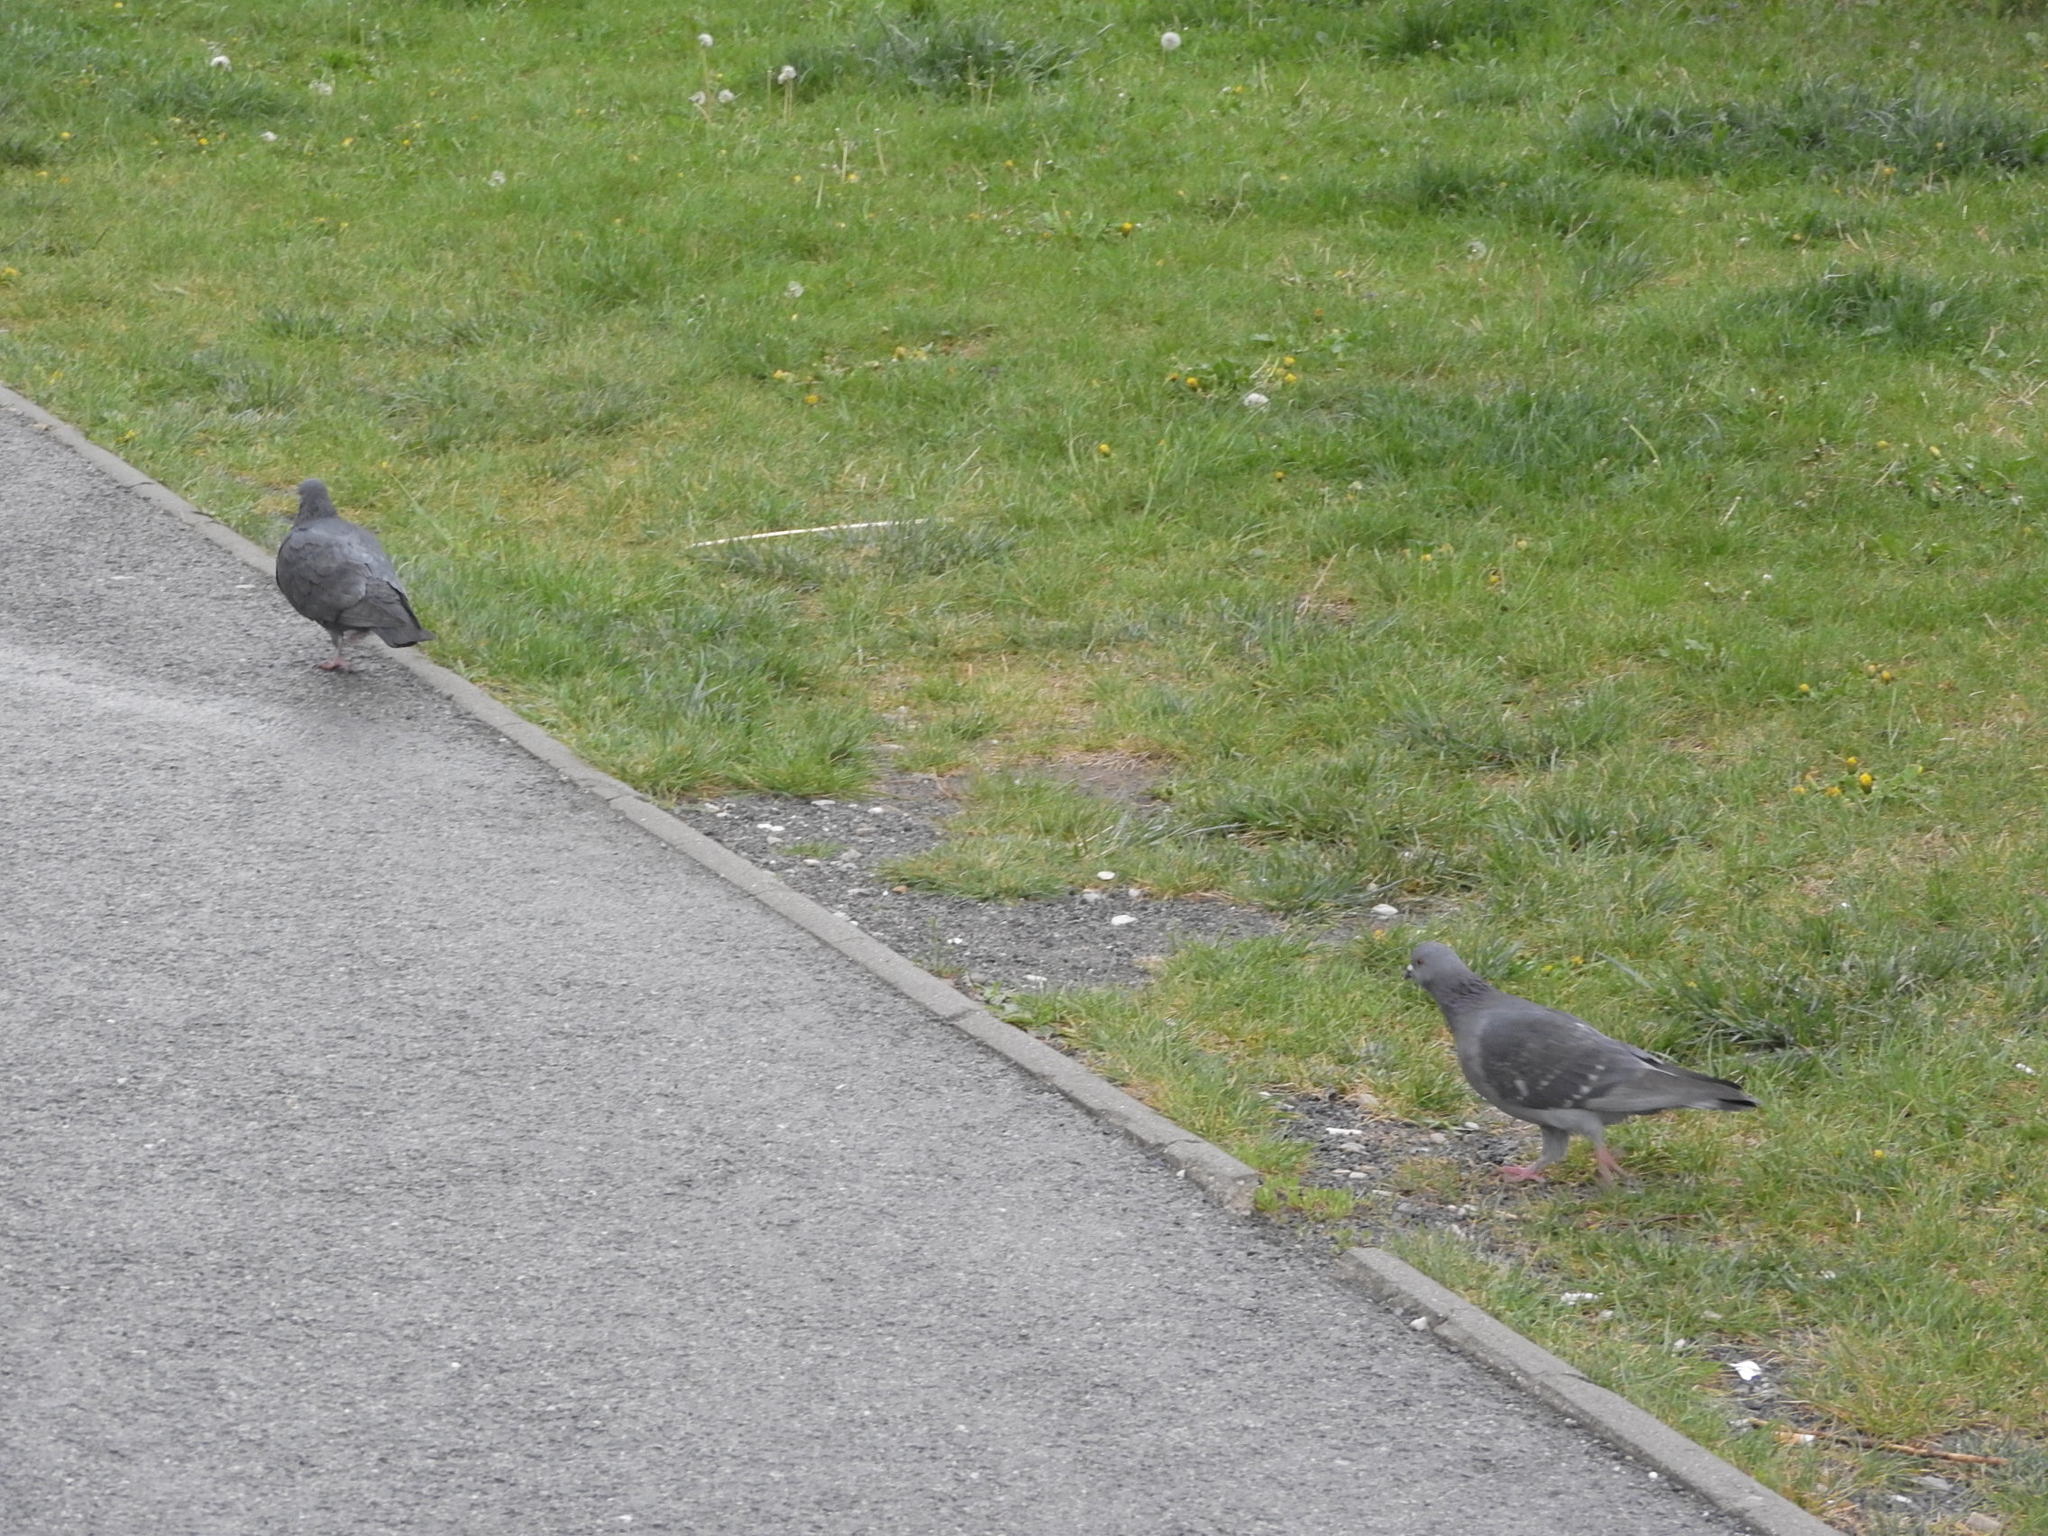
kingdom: Animalia
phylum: Chordata
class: Aves
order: Columbiformes
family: Columbidae
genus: Columba
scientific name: Columba livia
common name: Rock pigeon
